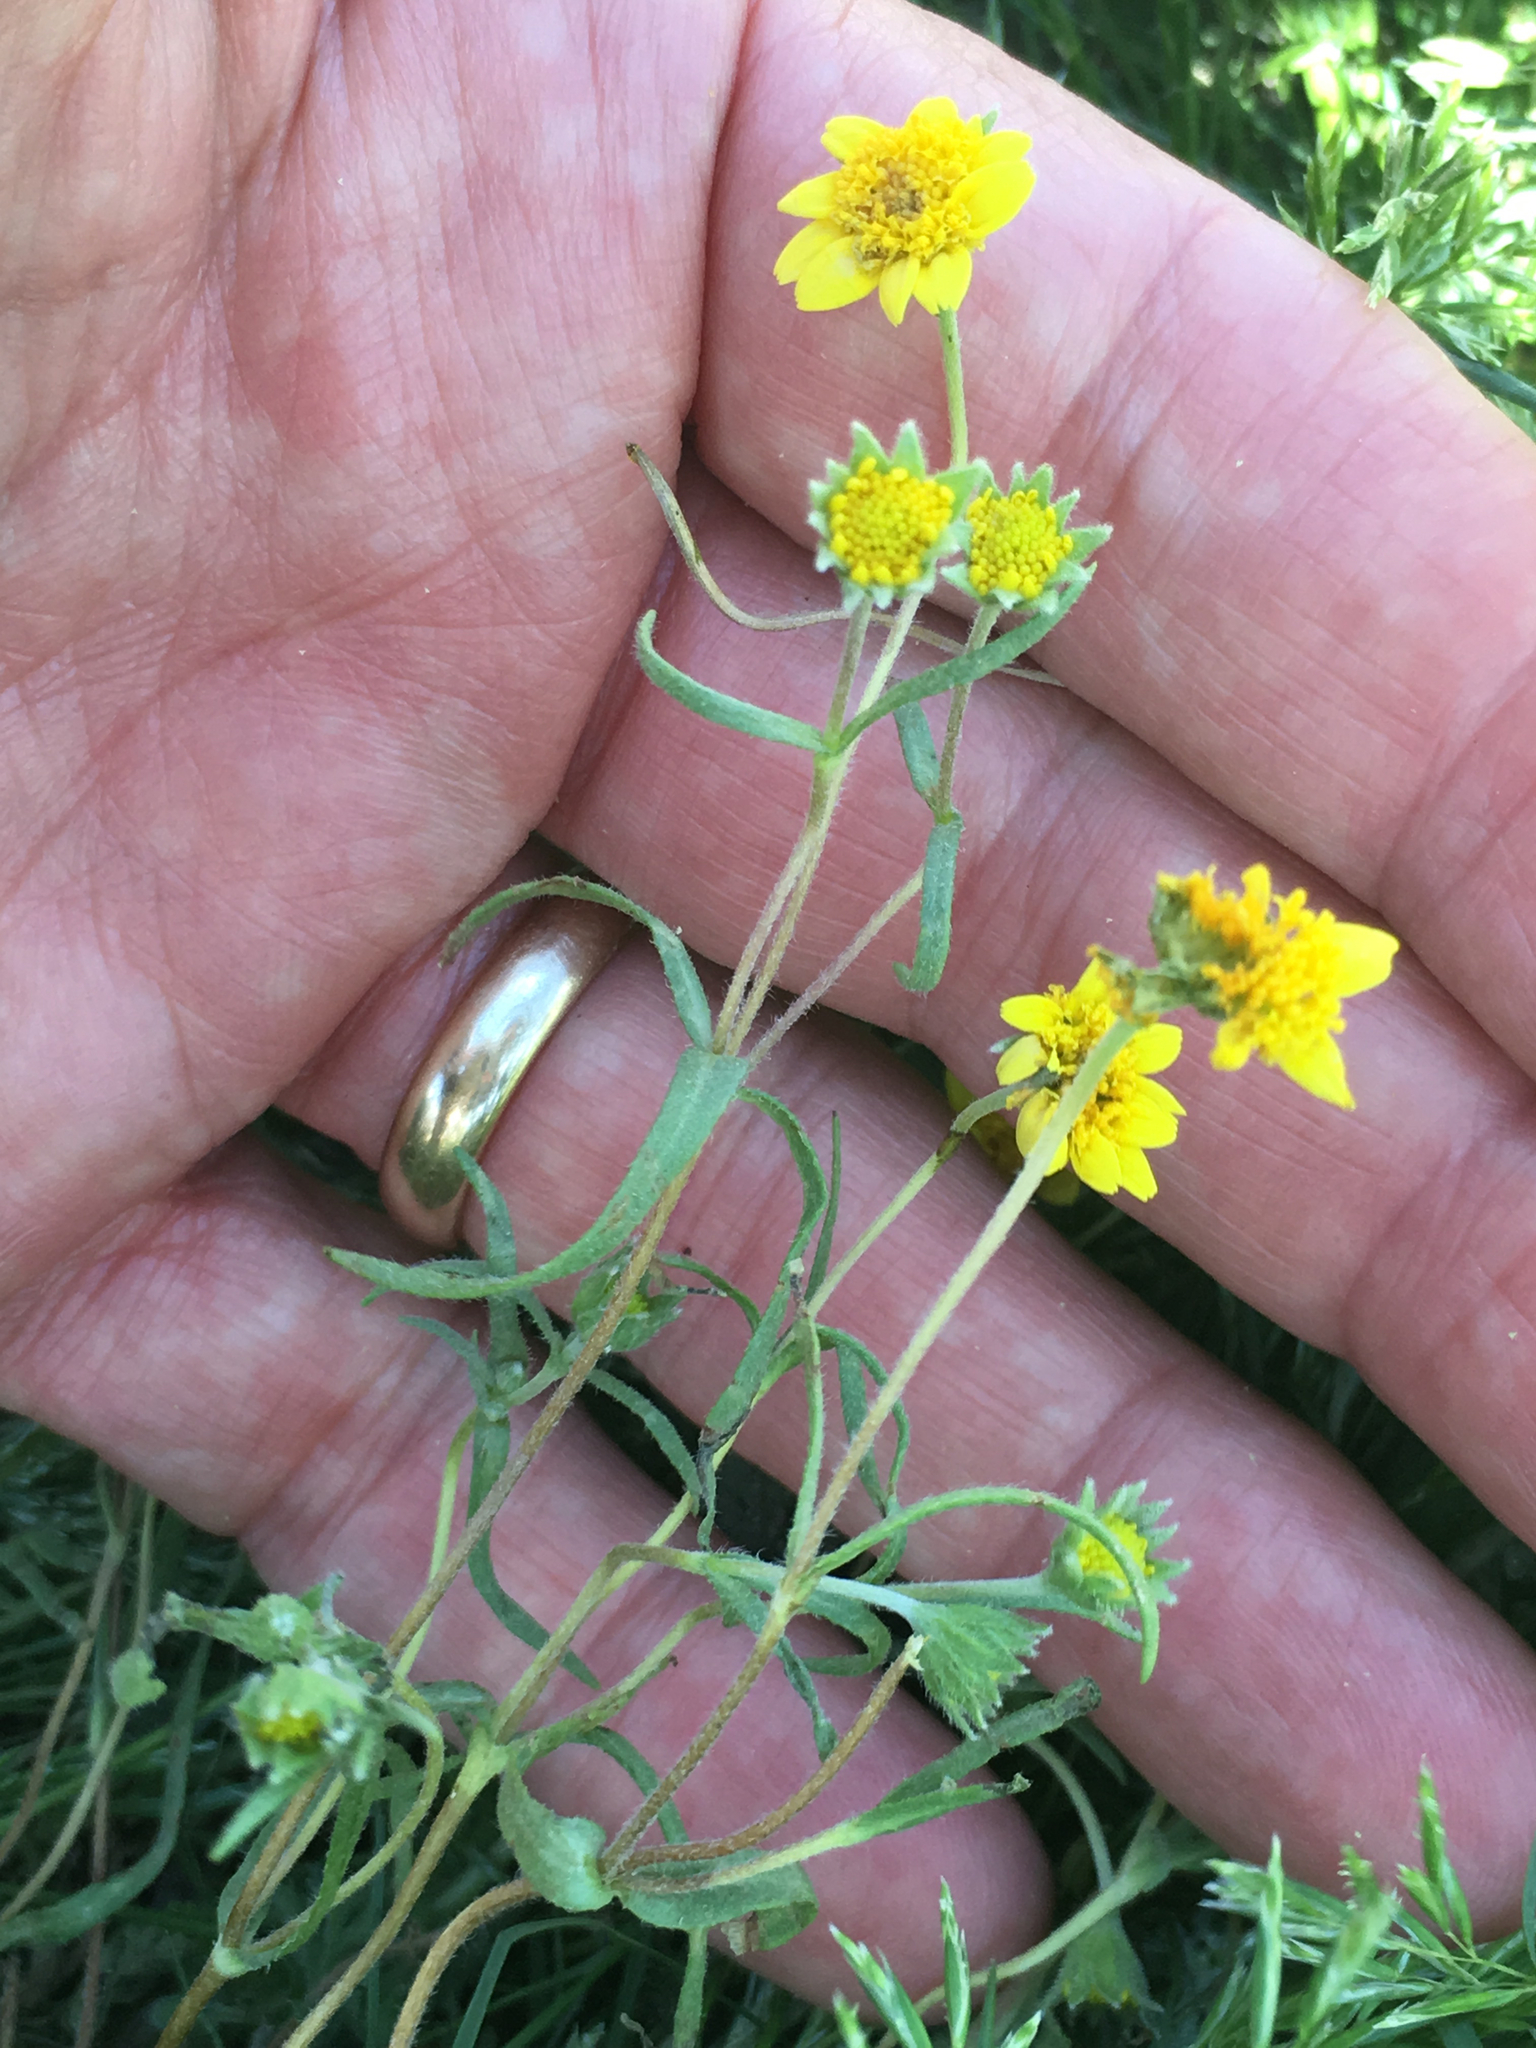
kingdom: Plantae
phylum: Tracheophyta
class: Magnoliopsida
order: Asterales
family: Asteraceae
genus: Lasthenia
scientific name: Lasthenia gracilis
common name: Common goldfields
